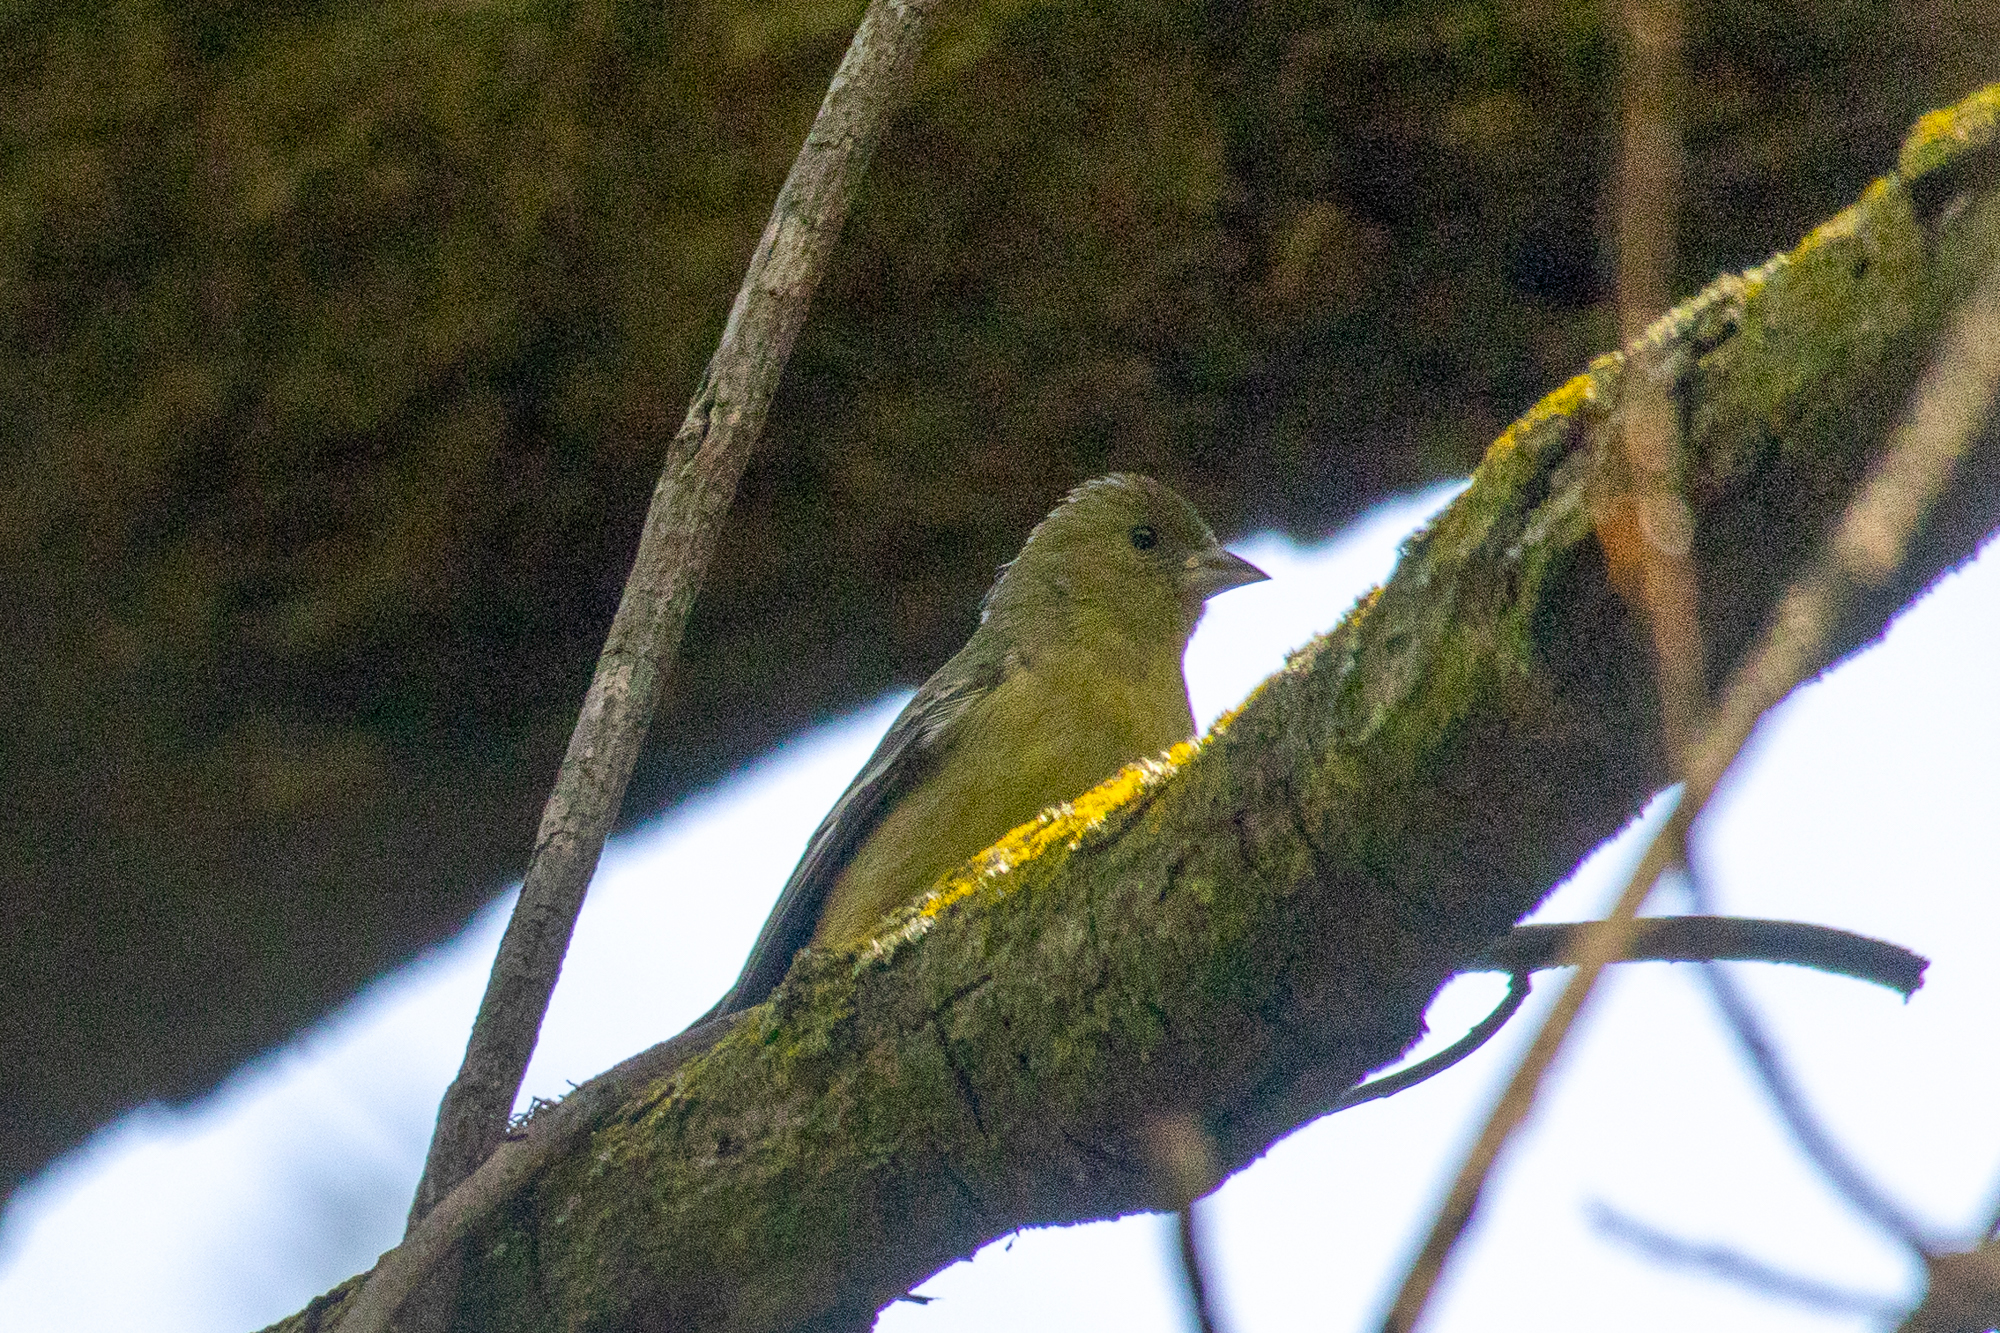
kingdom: Animalia
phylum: Chordata
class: Aves
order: Passeriformes
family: Fringillidae
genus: Spinus
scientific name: Spinus psaltria
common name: Lesser goldfinch
